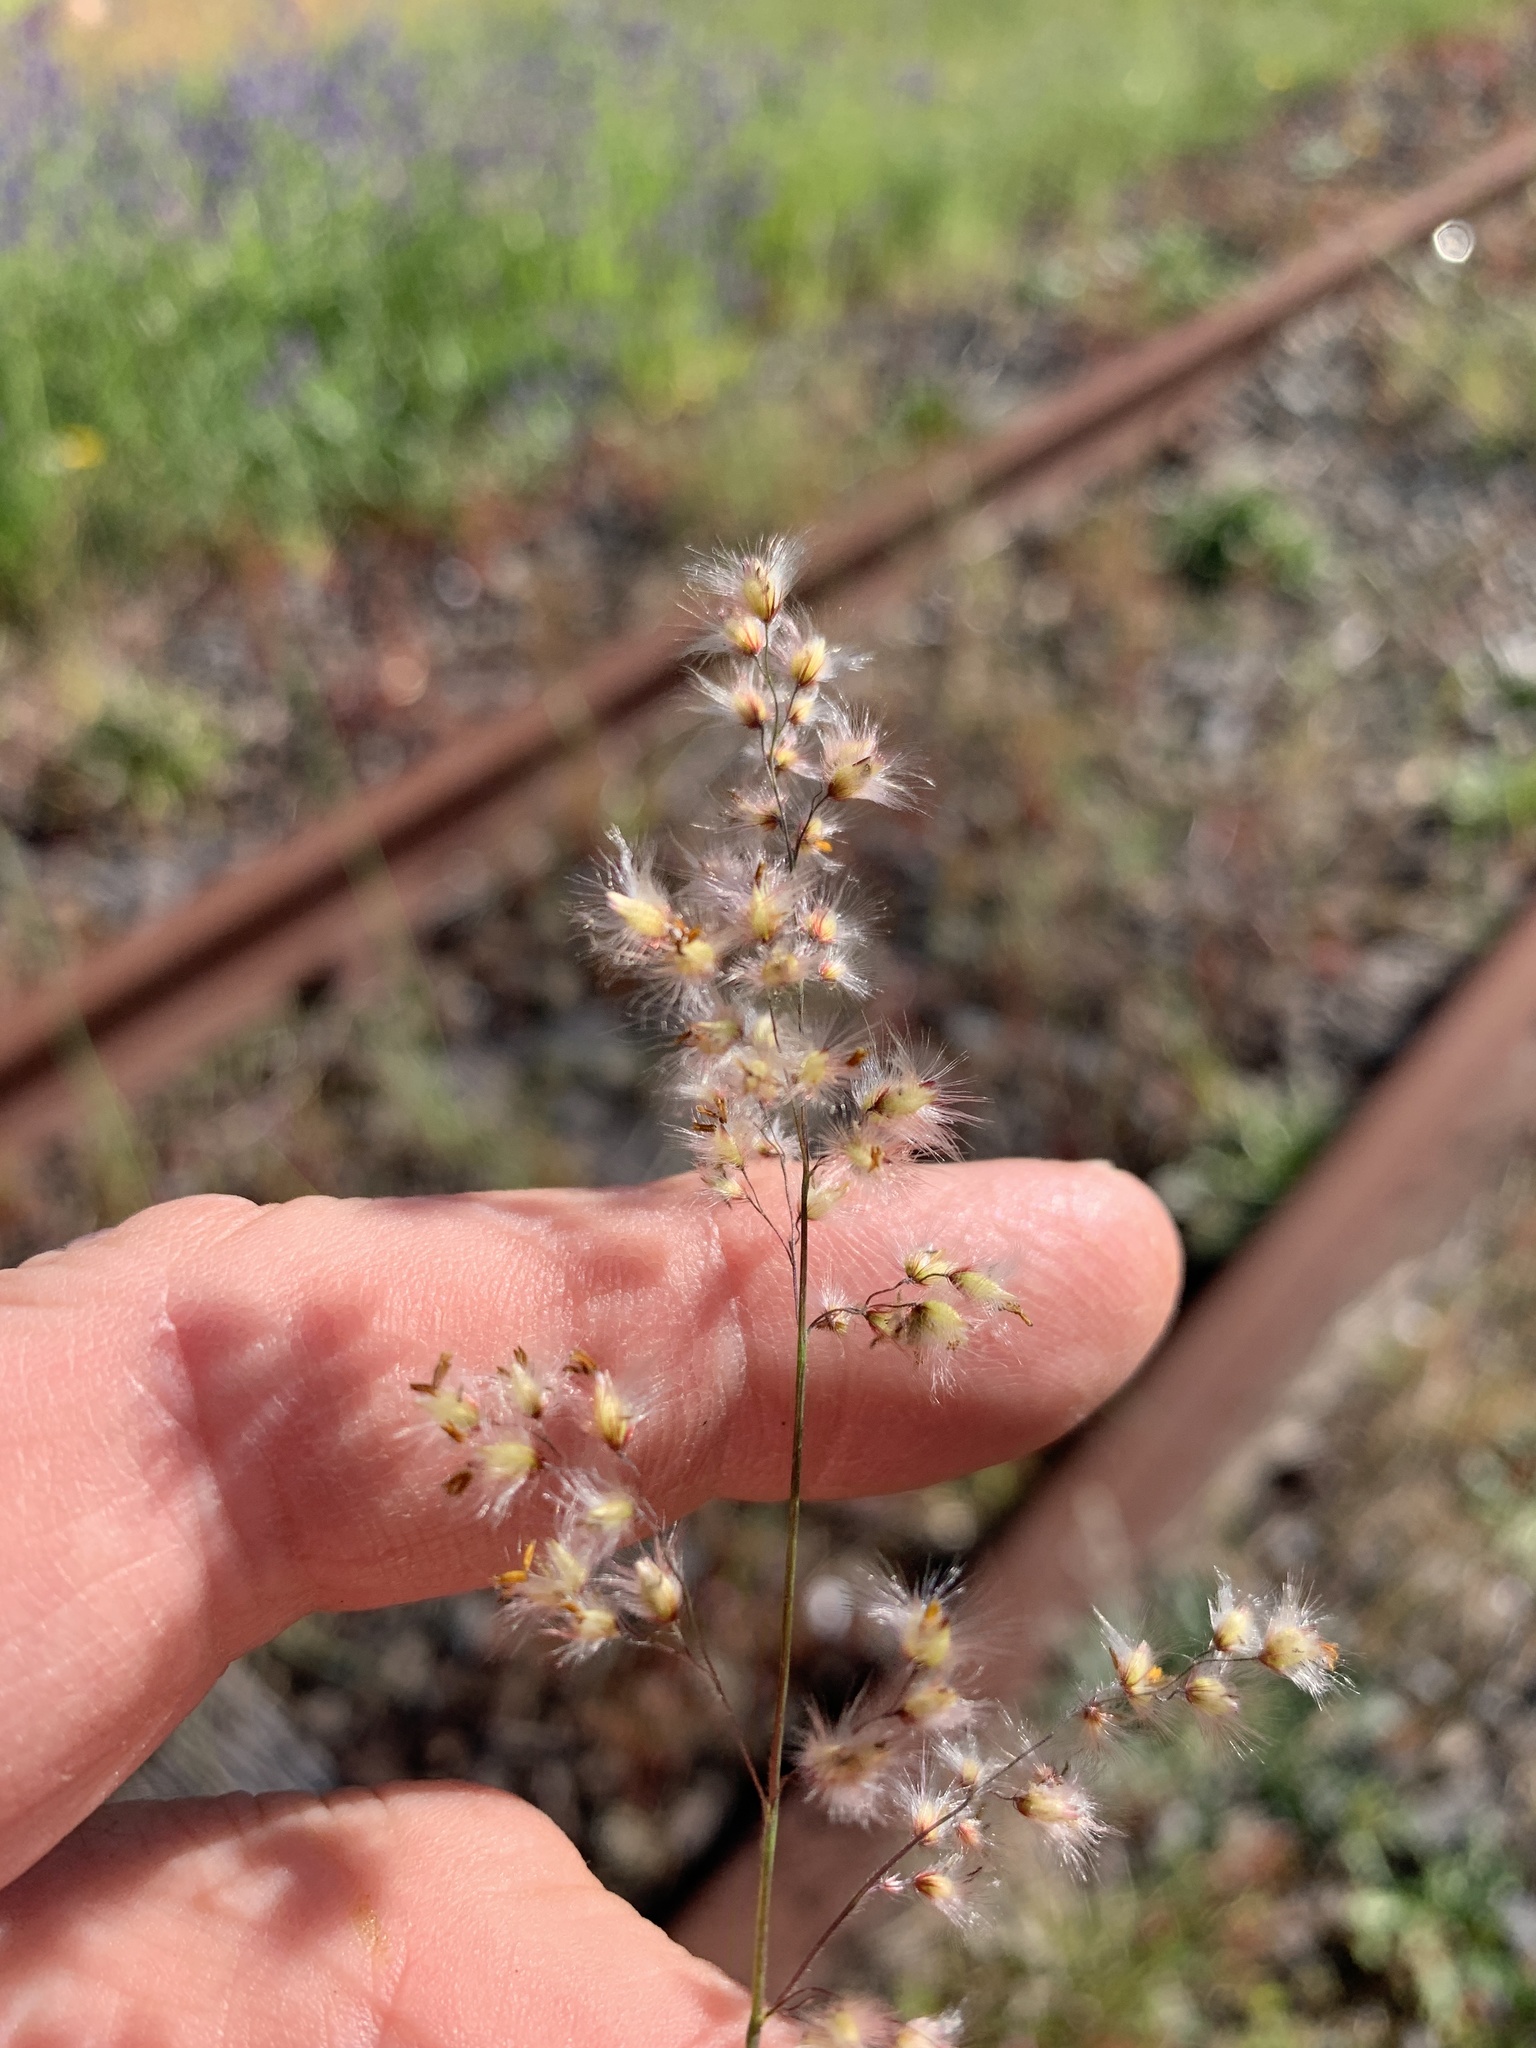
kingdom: Plantae
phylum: Tracheophyta
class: Liliopsida
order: Poales
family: Poaceae
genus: Melinis
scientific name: Melinis repens
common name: Rose natal grass
